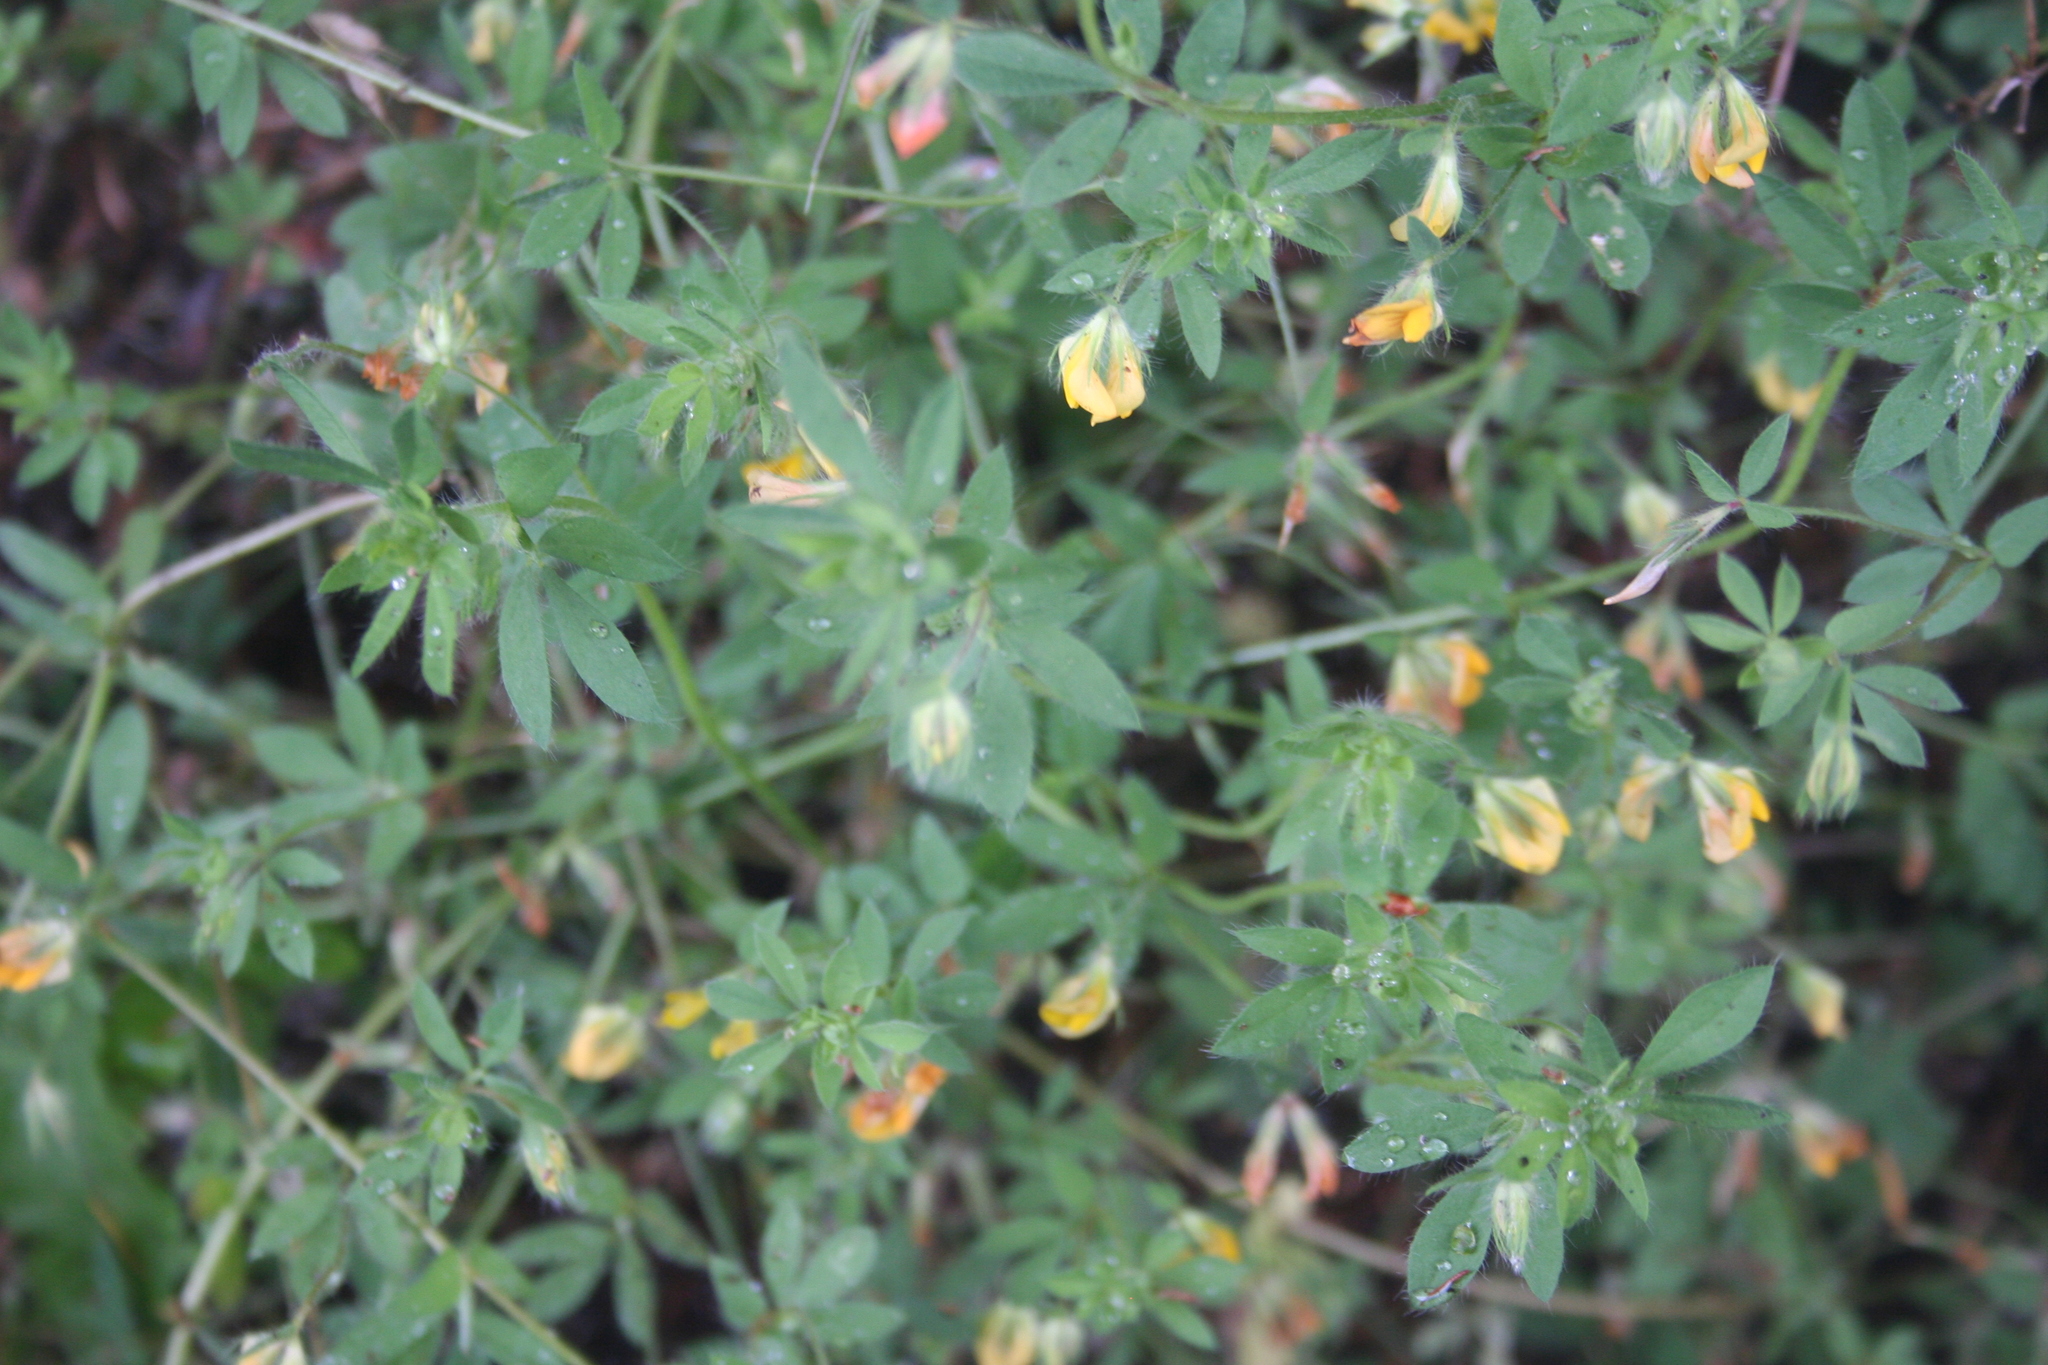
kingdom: Plantae
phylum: Tracheophyta
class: Magnoliopsida
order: Fabales
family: Fabaceae
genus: Lotus
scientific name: Lotus hispidus
